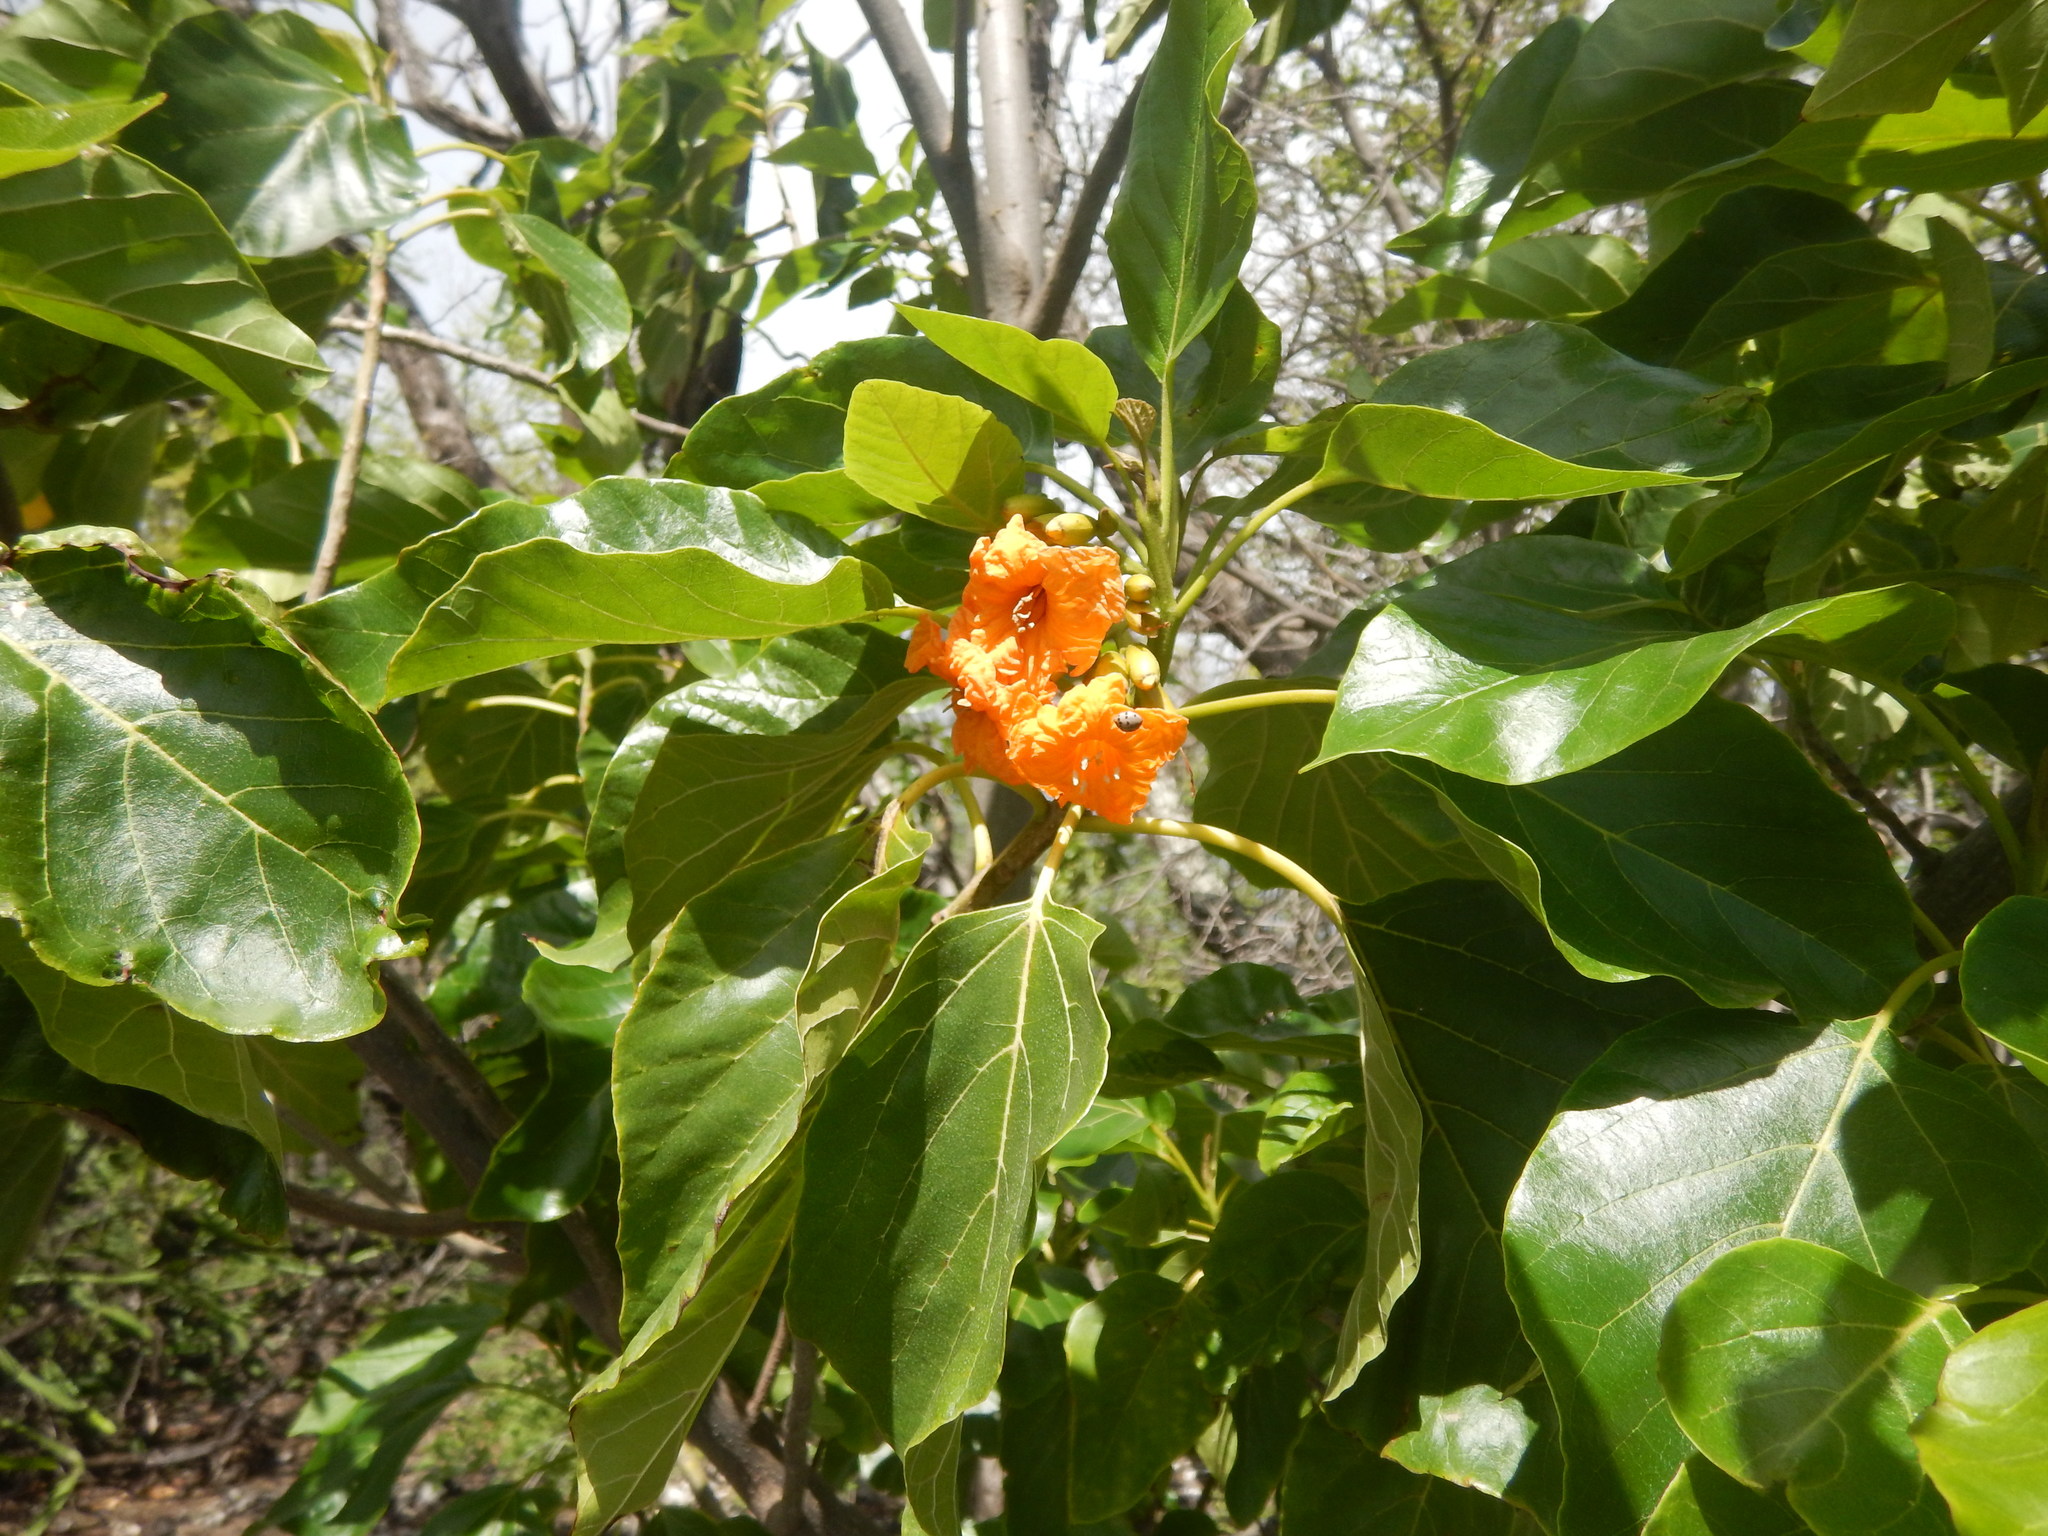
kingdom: Plantae
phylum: Tracheophyta
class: Magnoliopsida
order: Boraginales
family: Cordiaceae
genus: Cordia
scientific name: Cordia subcordata
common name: Mareer
